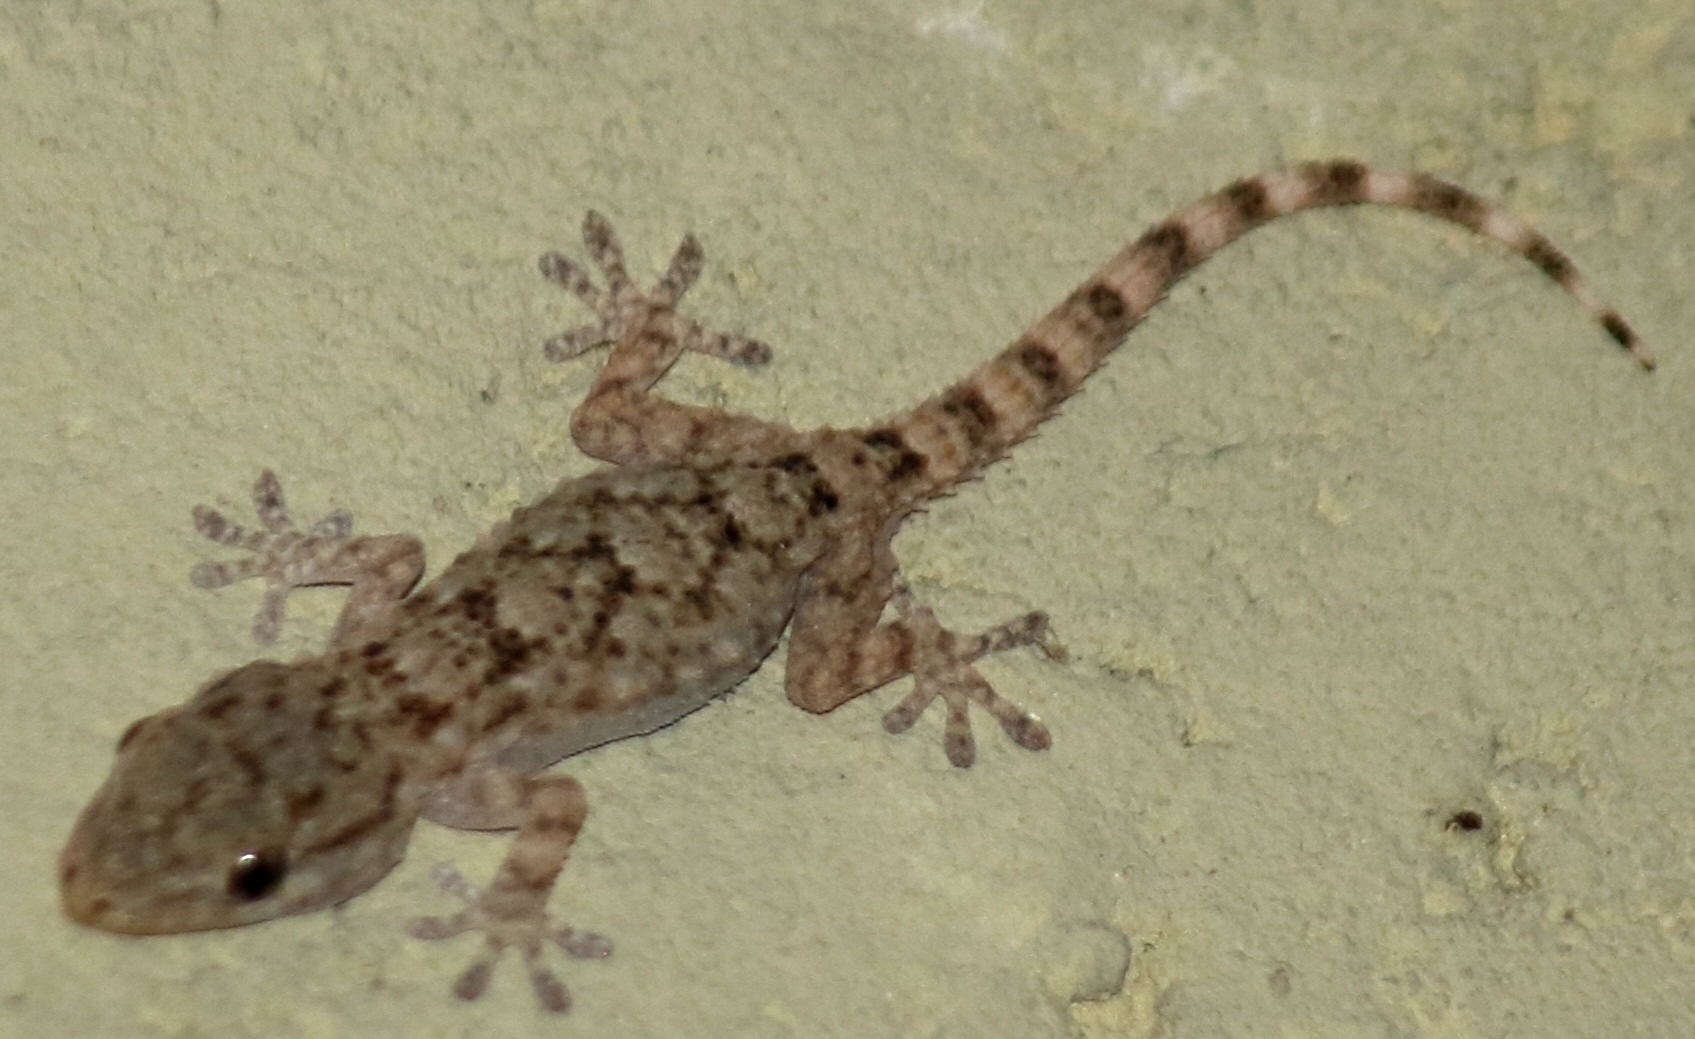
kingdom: Animalia
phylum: Chordata
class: Squamata
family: Phyllodactylidae
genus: Tarentola
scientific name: Tarentola mauritanica
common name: Moorish gecko
